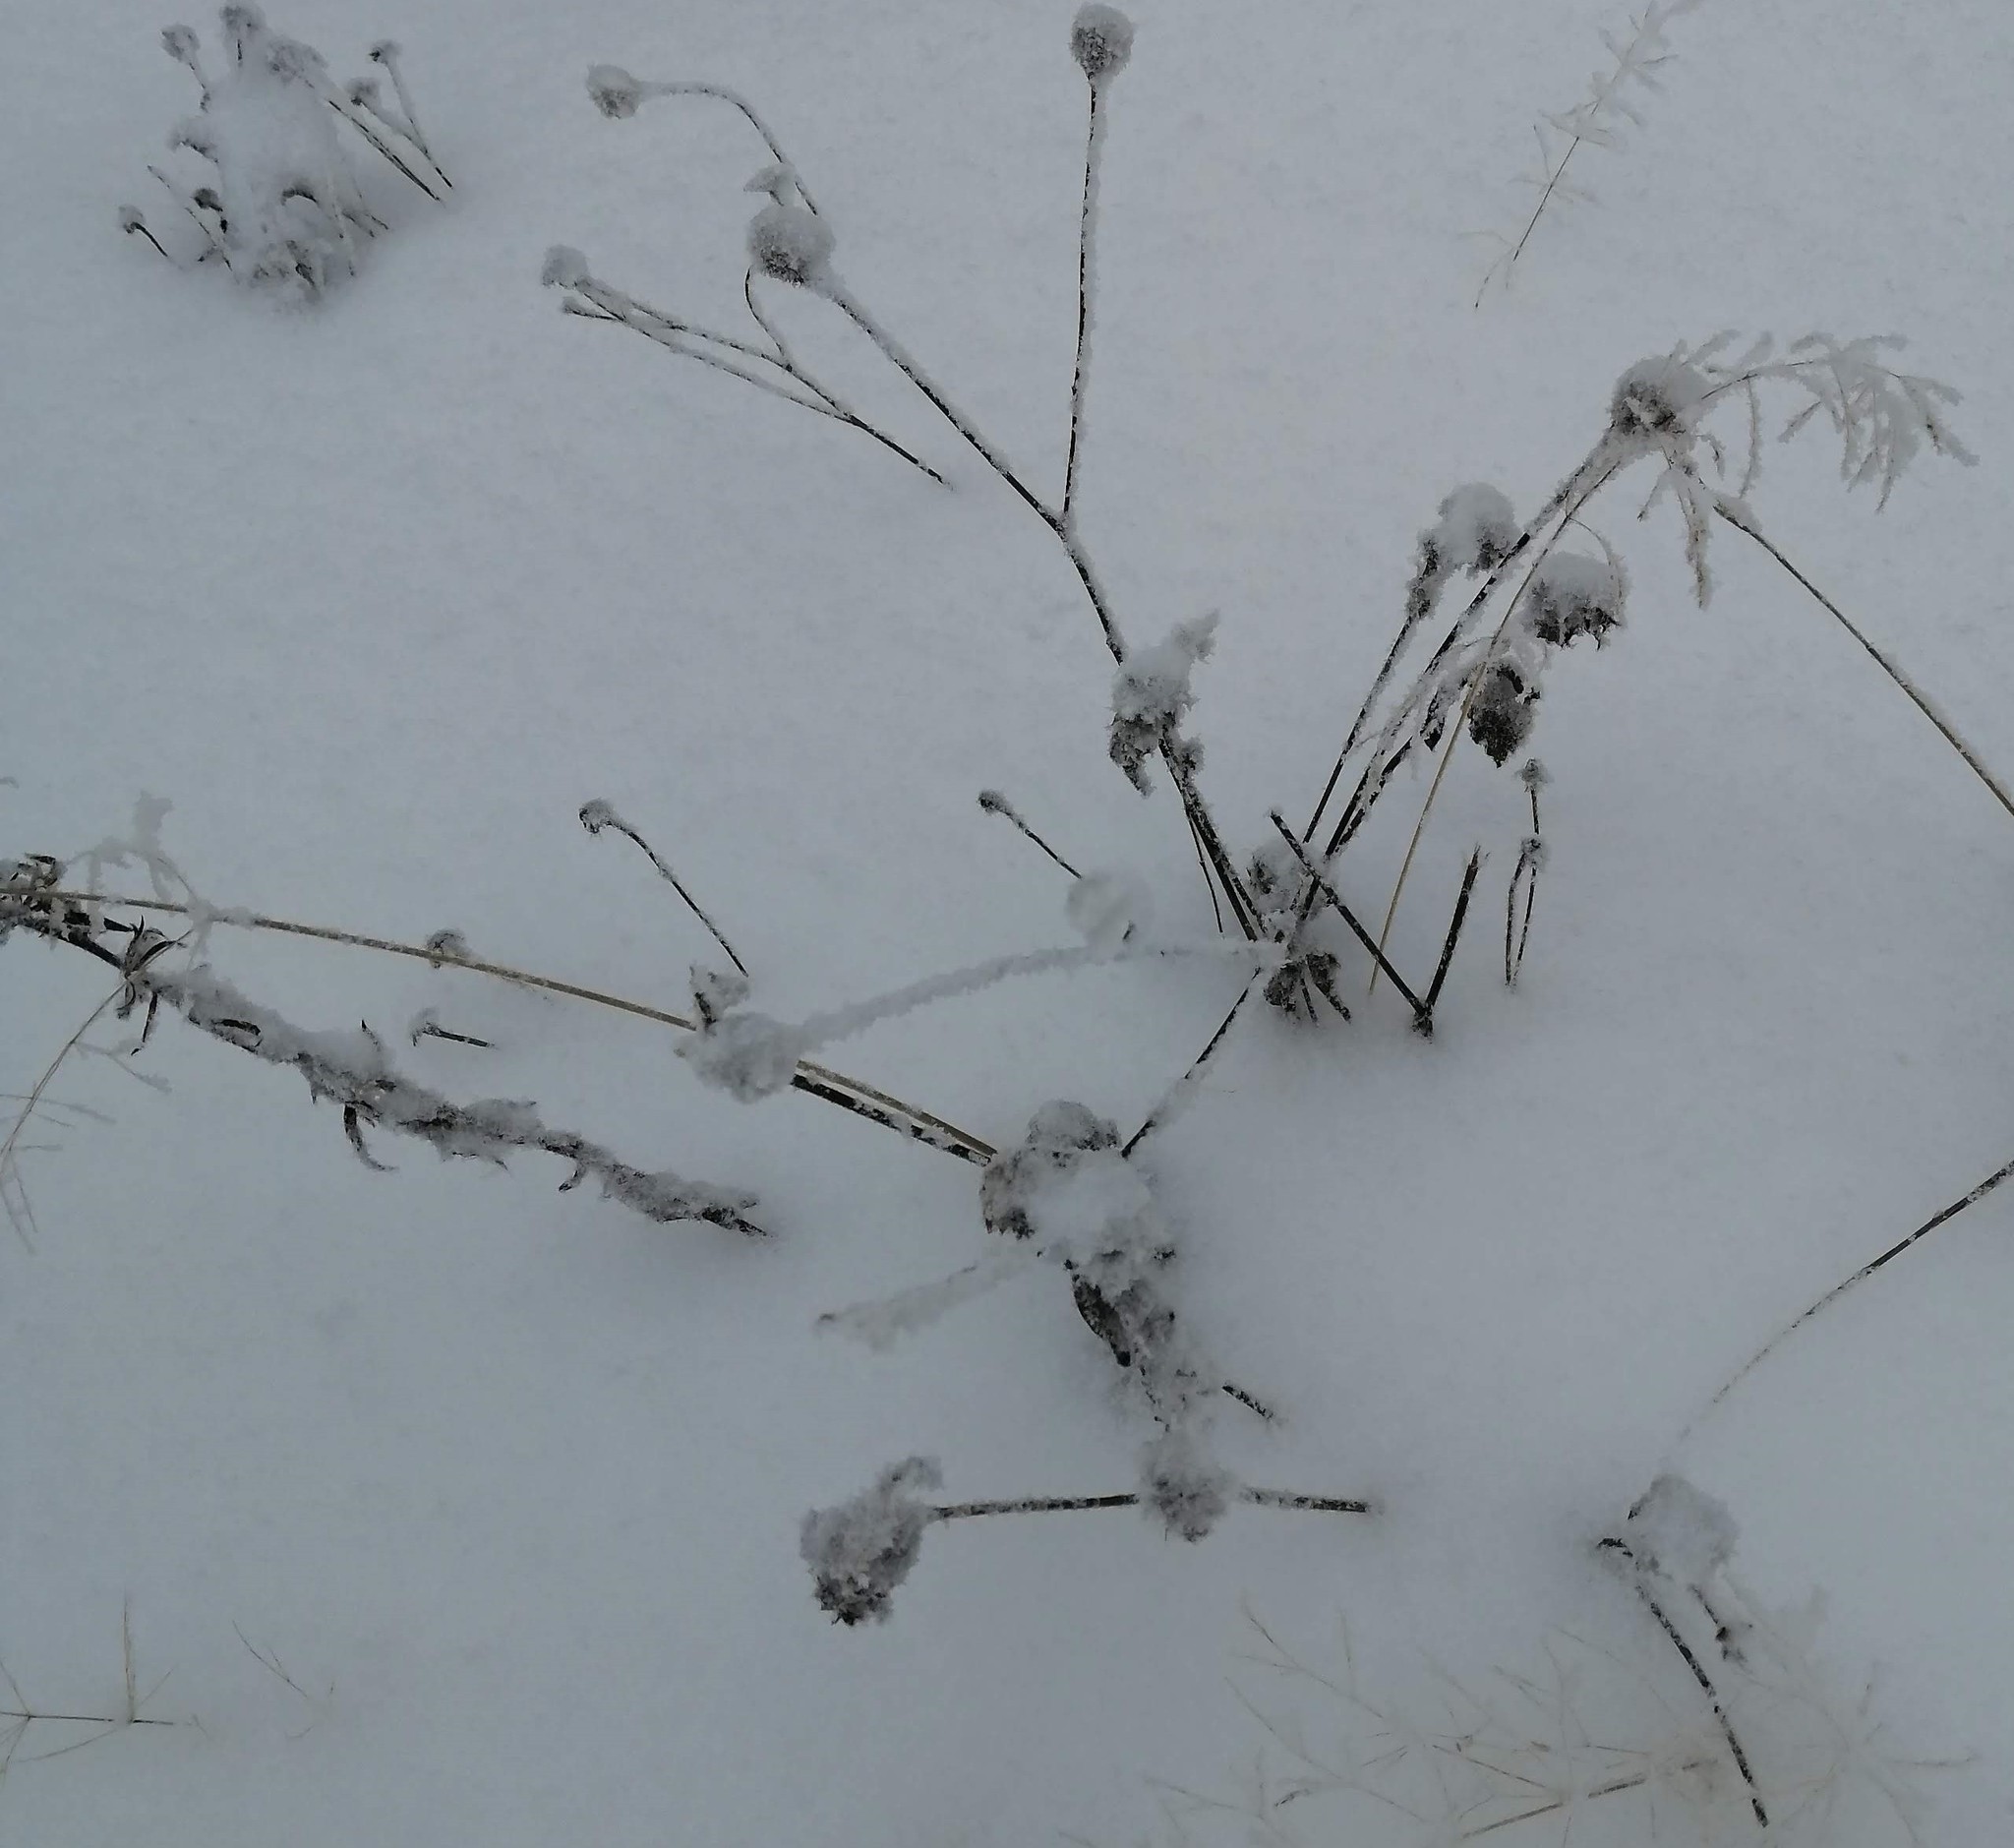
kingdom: Plantae
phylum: Tracheophyta
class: Magnoliopsida
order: Rosales
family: Rosaceae
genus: Geum
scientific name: Geum aleppicum
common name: Yellow avens
